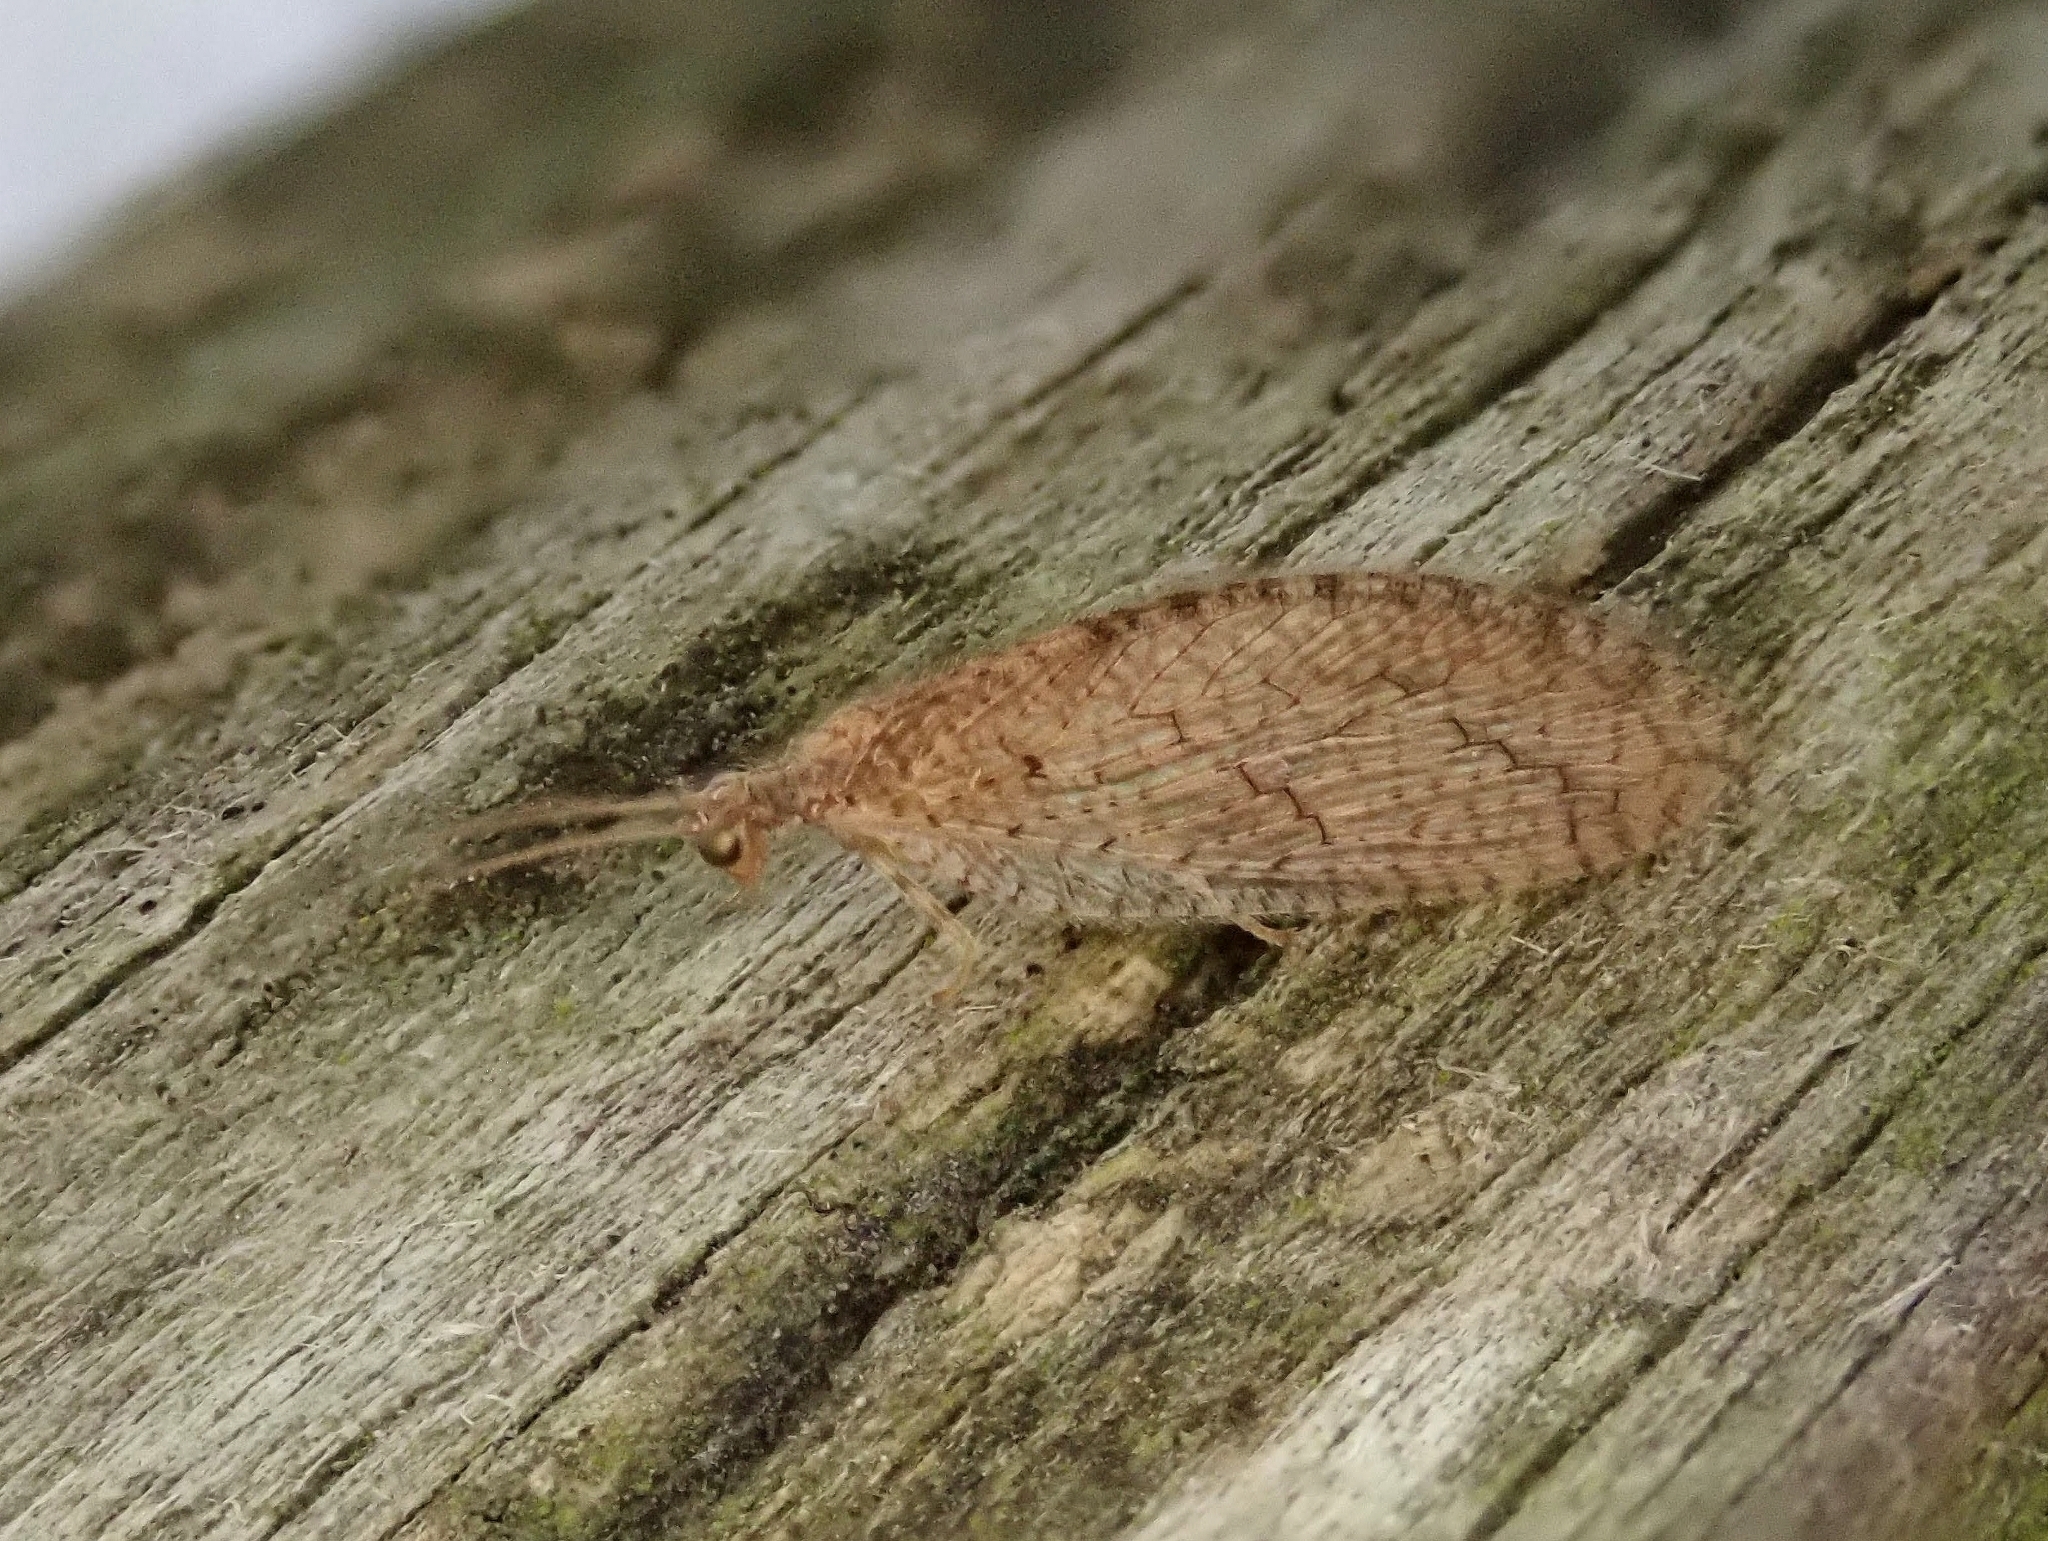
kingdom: Animalia
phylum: Arthropoda
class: Insecta
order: Neuroptera
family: Hemerobiidae
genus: Micromus
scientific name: Micromus posticus
